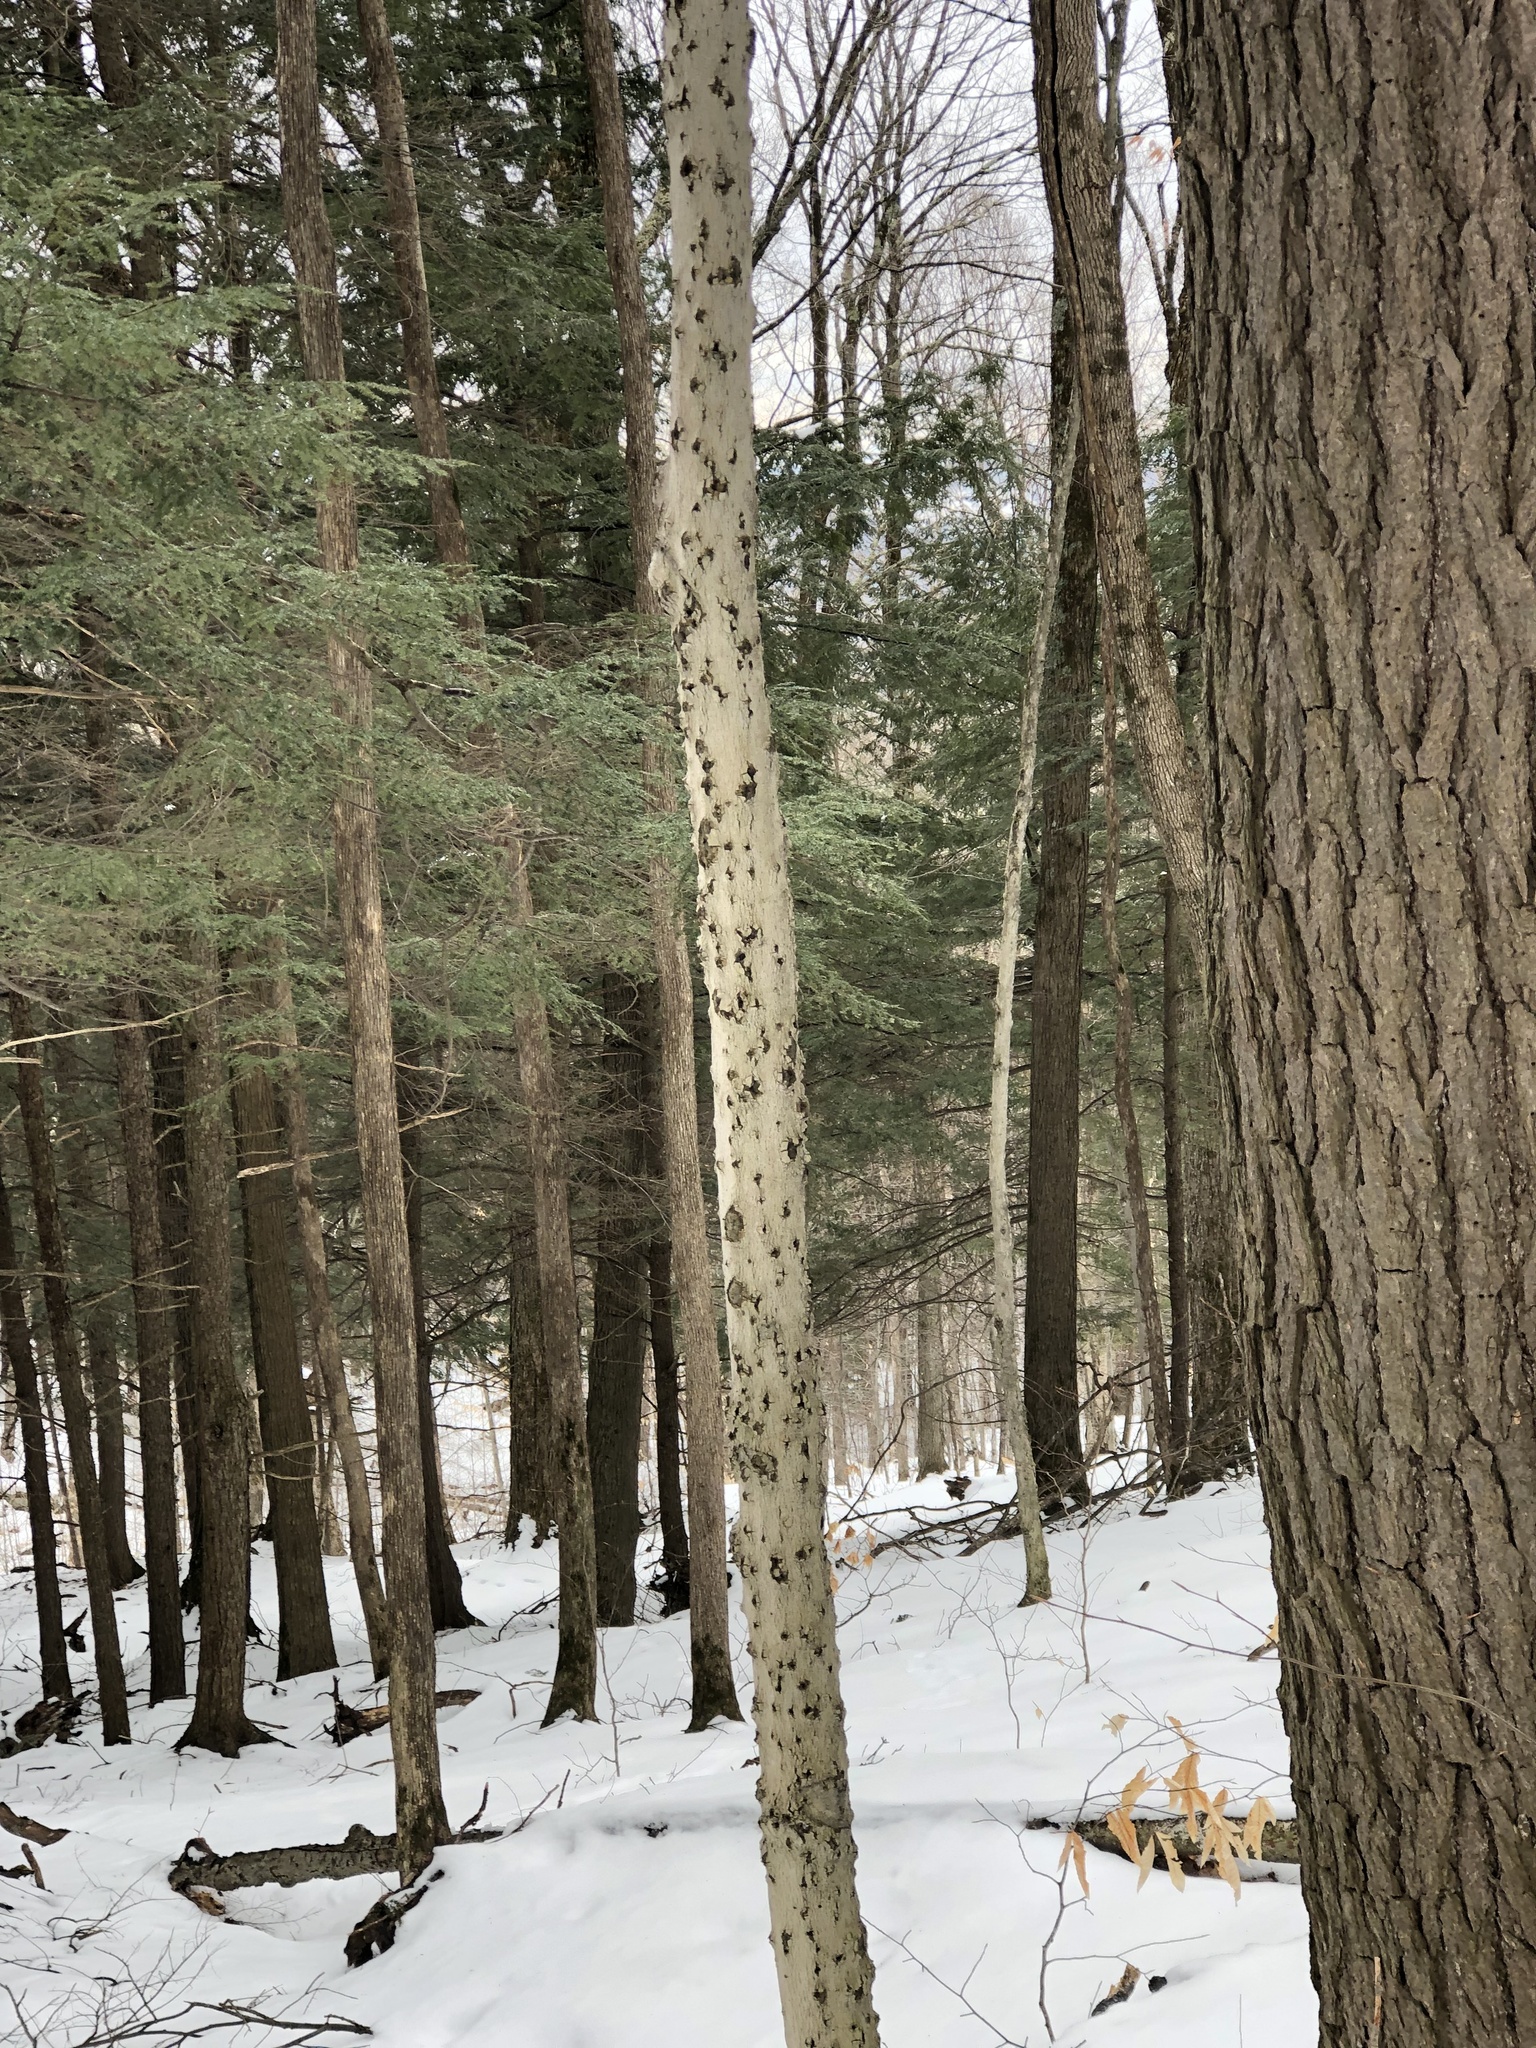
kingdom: Fungi
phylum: Ascomycota
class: Sordariomycetes
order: Hypocreales
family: Nectriaceae
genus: Neonectria
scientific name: Neonectria faginata
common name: Beech bark canker
